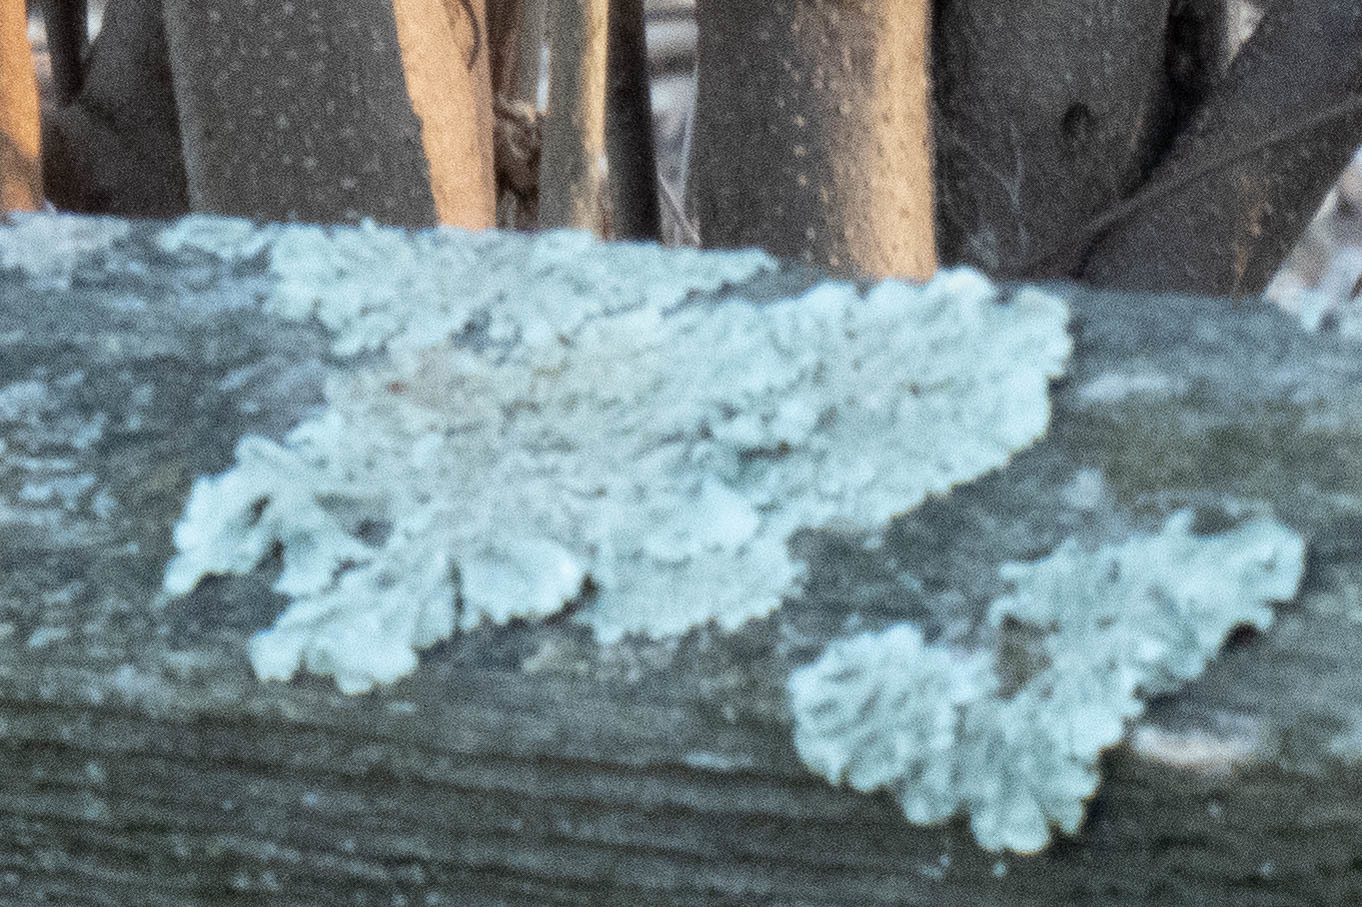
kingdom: Fungi
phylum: Ascomycota
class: Lecanoromycetes
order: Lecanorales
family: Parmeliaceae
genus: Flavoparmelia
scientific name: Flavoparmelia caperata
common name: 40-mile per hour lichen
